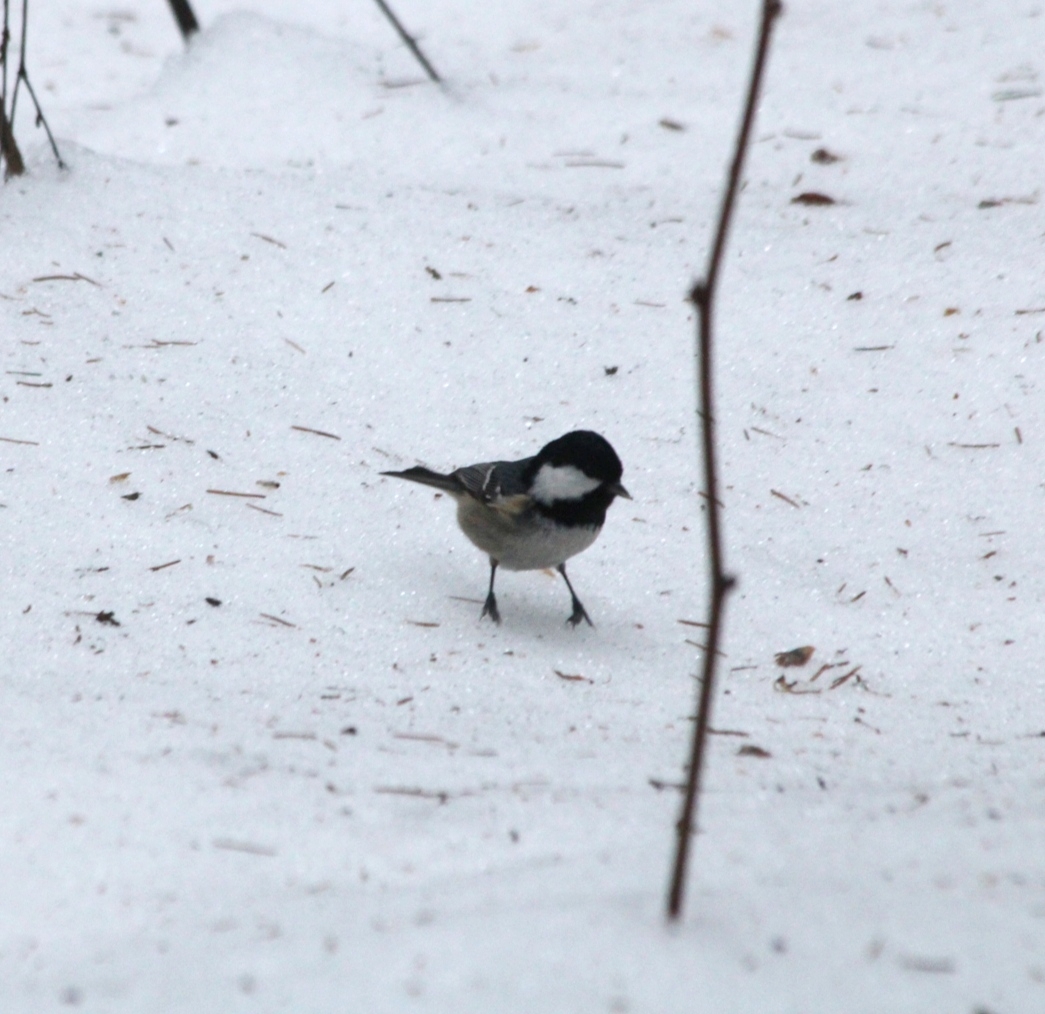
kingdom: Animalia
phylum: Chordata
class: Aves
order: Passeriformes
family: Paridae
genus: Periparus
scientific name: Periparus ater
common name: Coal tit
